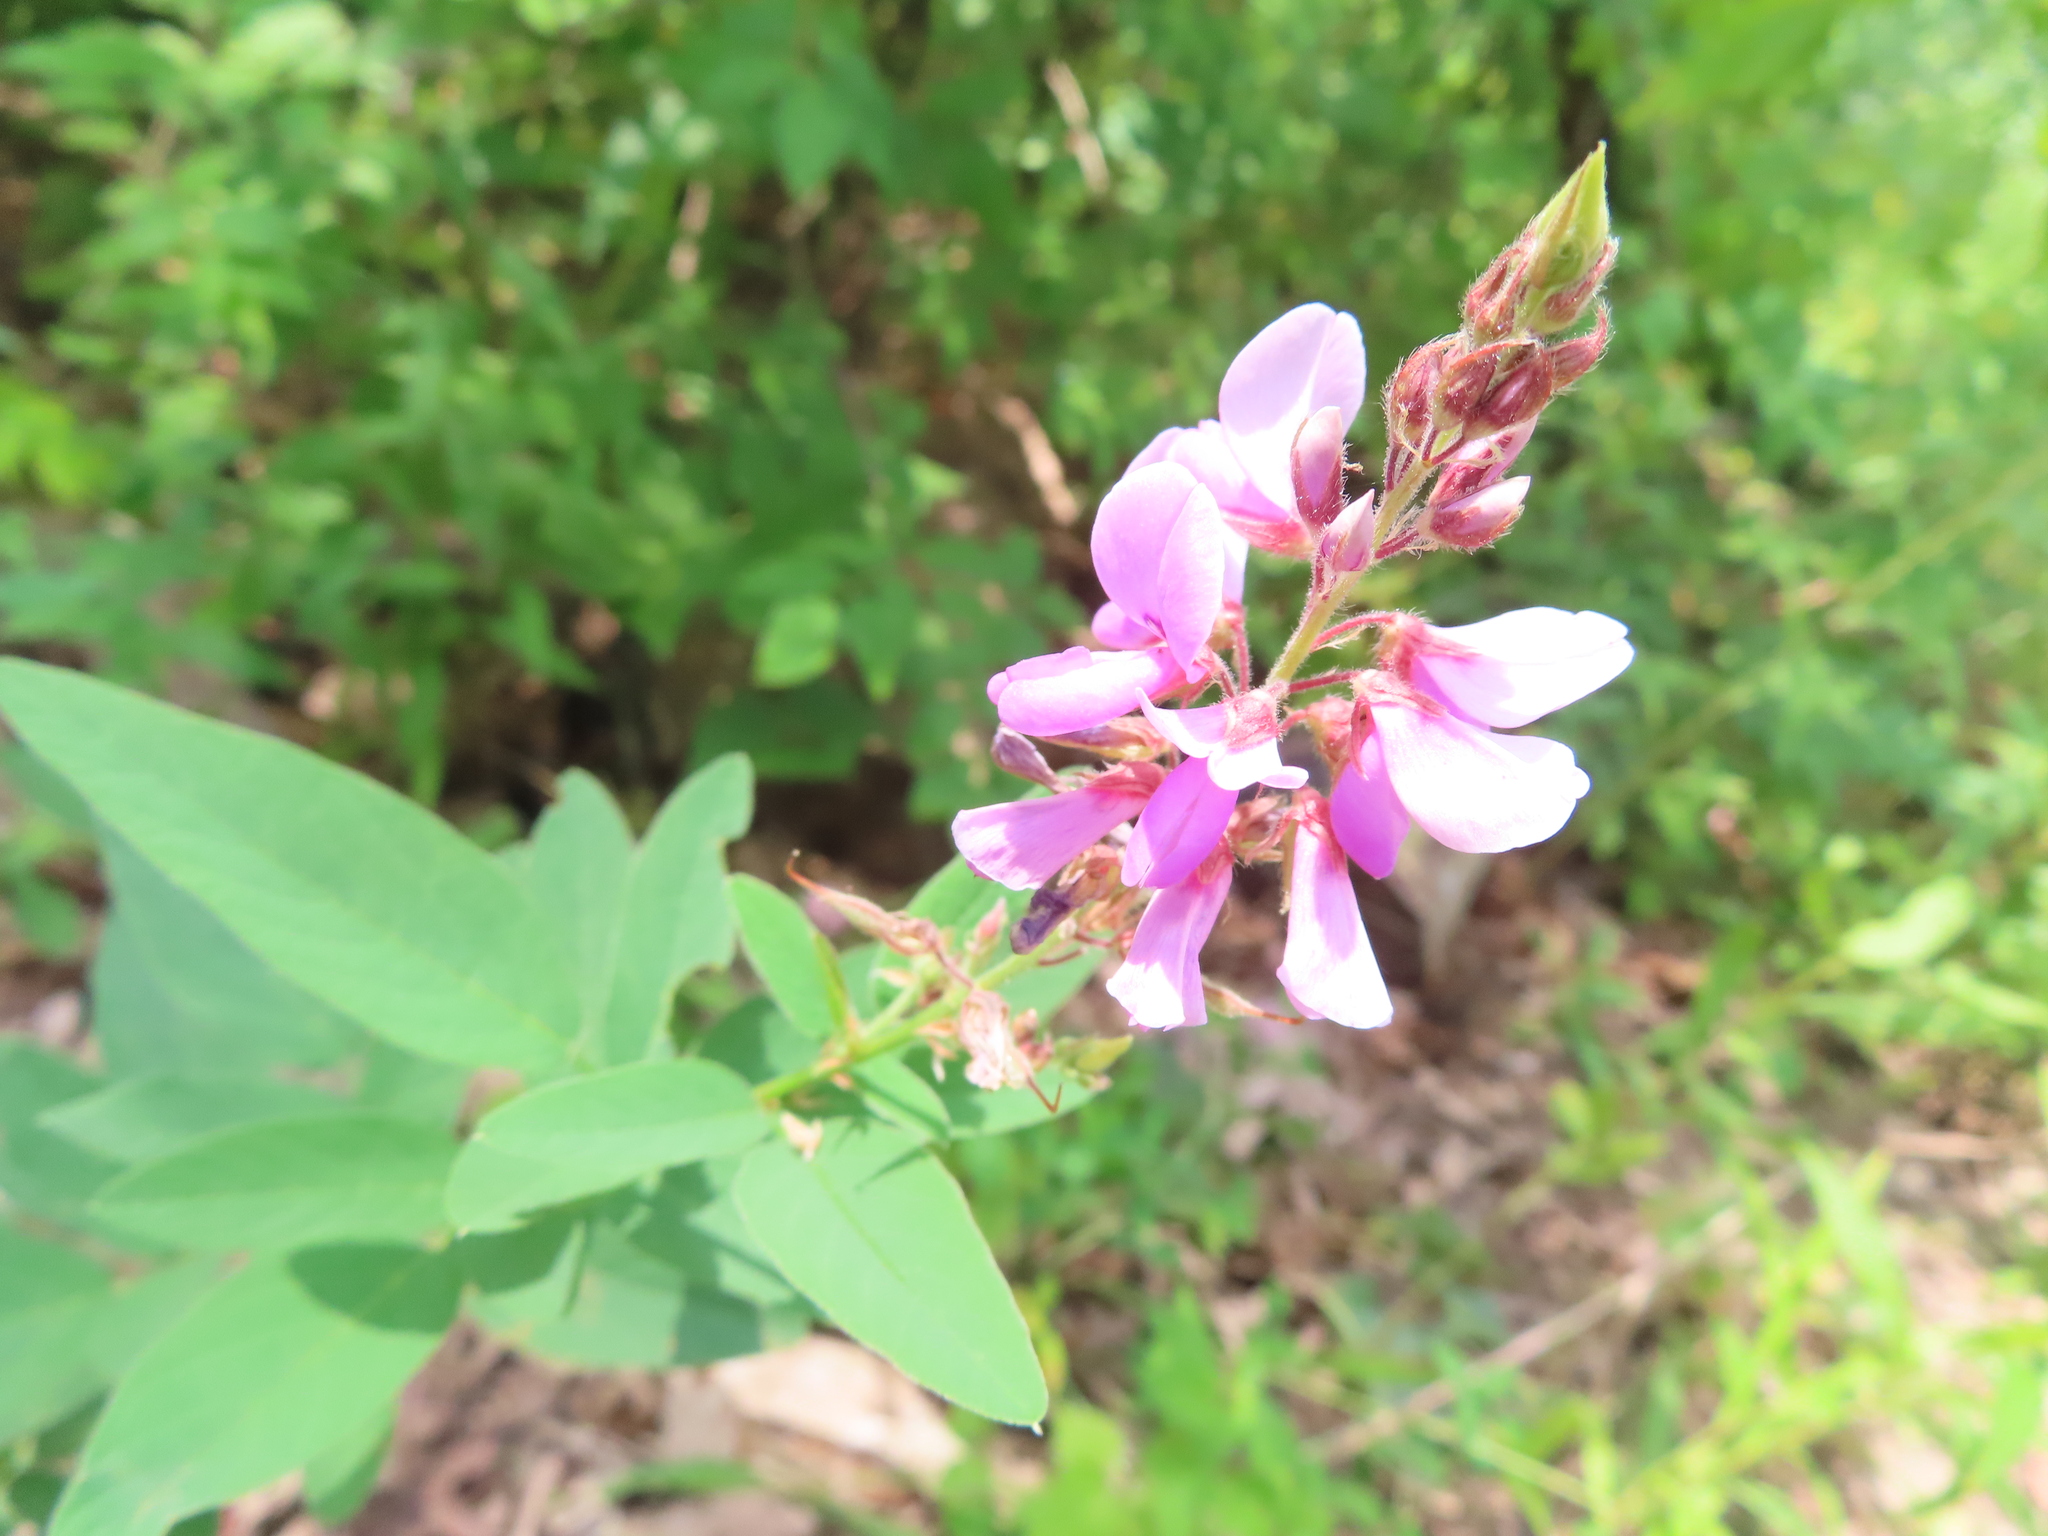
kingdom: Plantae
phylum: Tracheophyta
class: Magnoliopsida
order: Fabales
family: Fabaceae
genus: Desmodium
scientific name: Desmodium canadense
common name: Canada tick-trefoil
